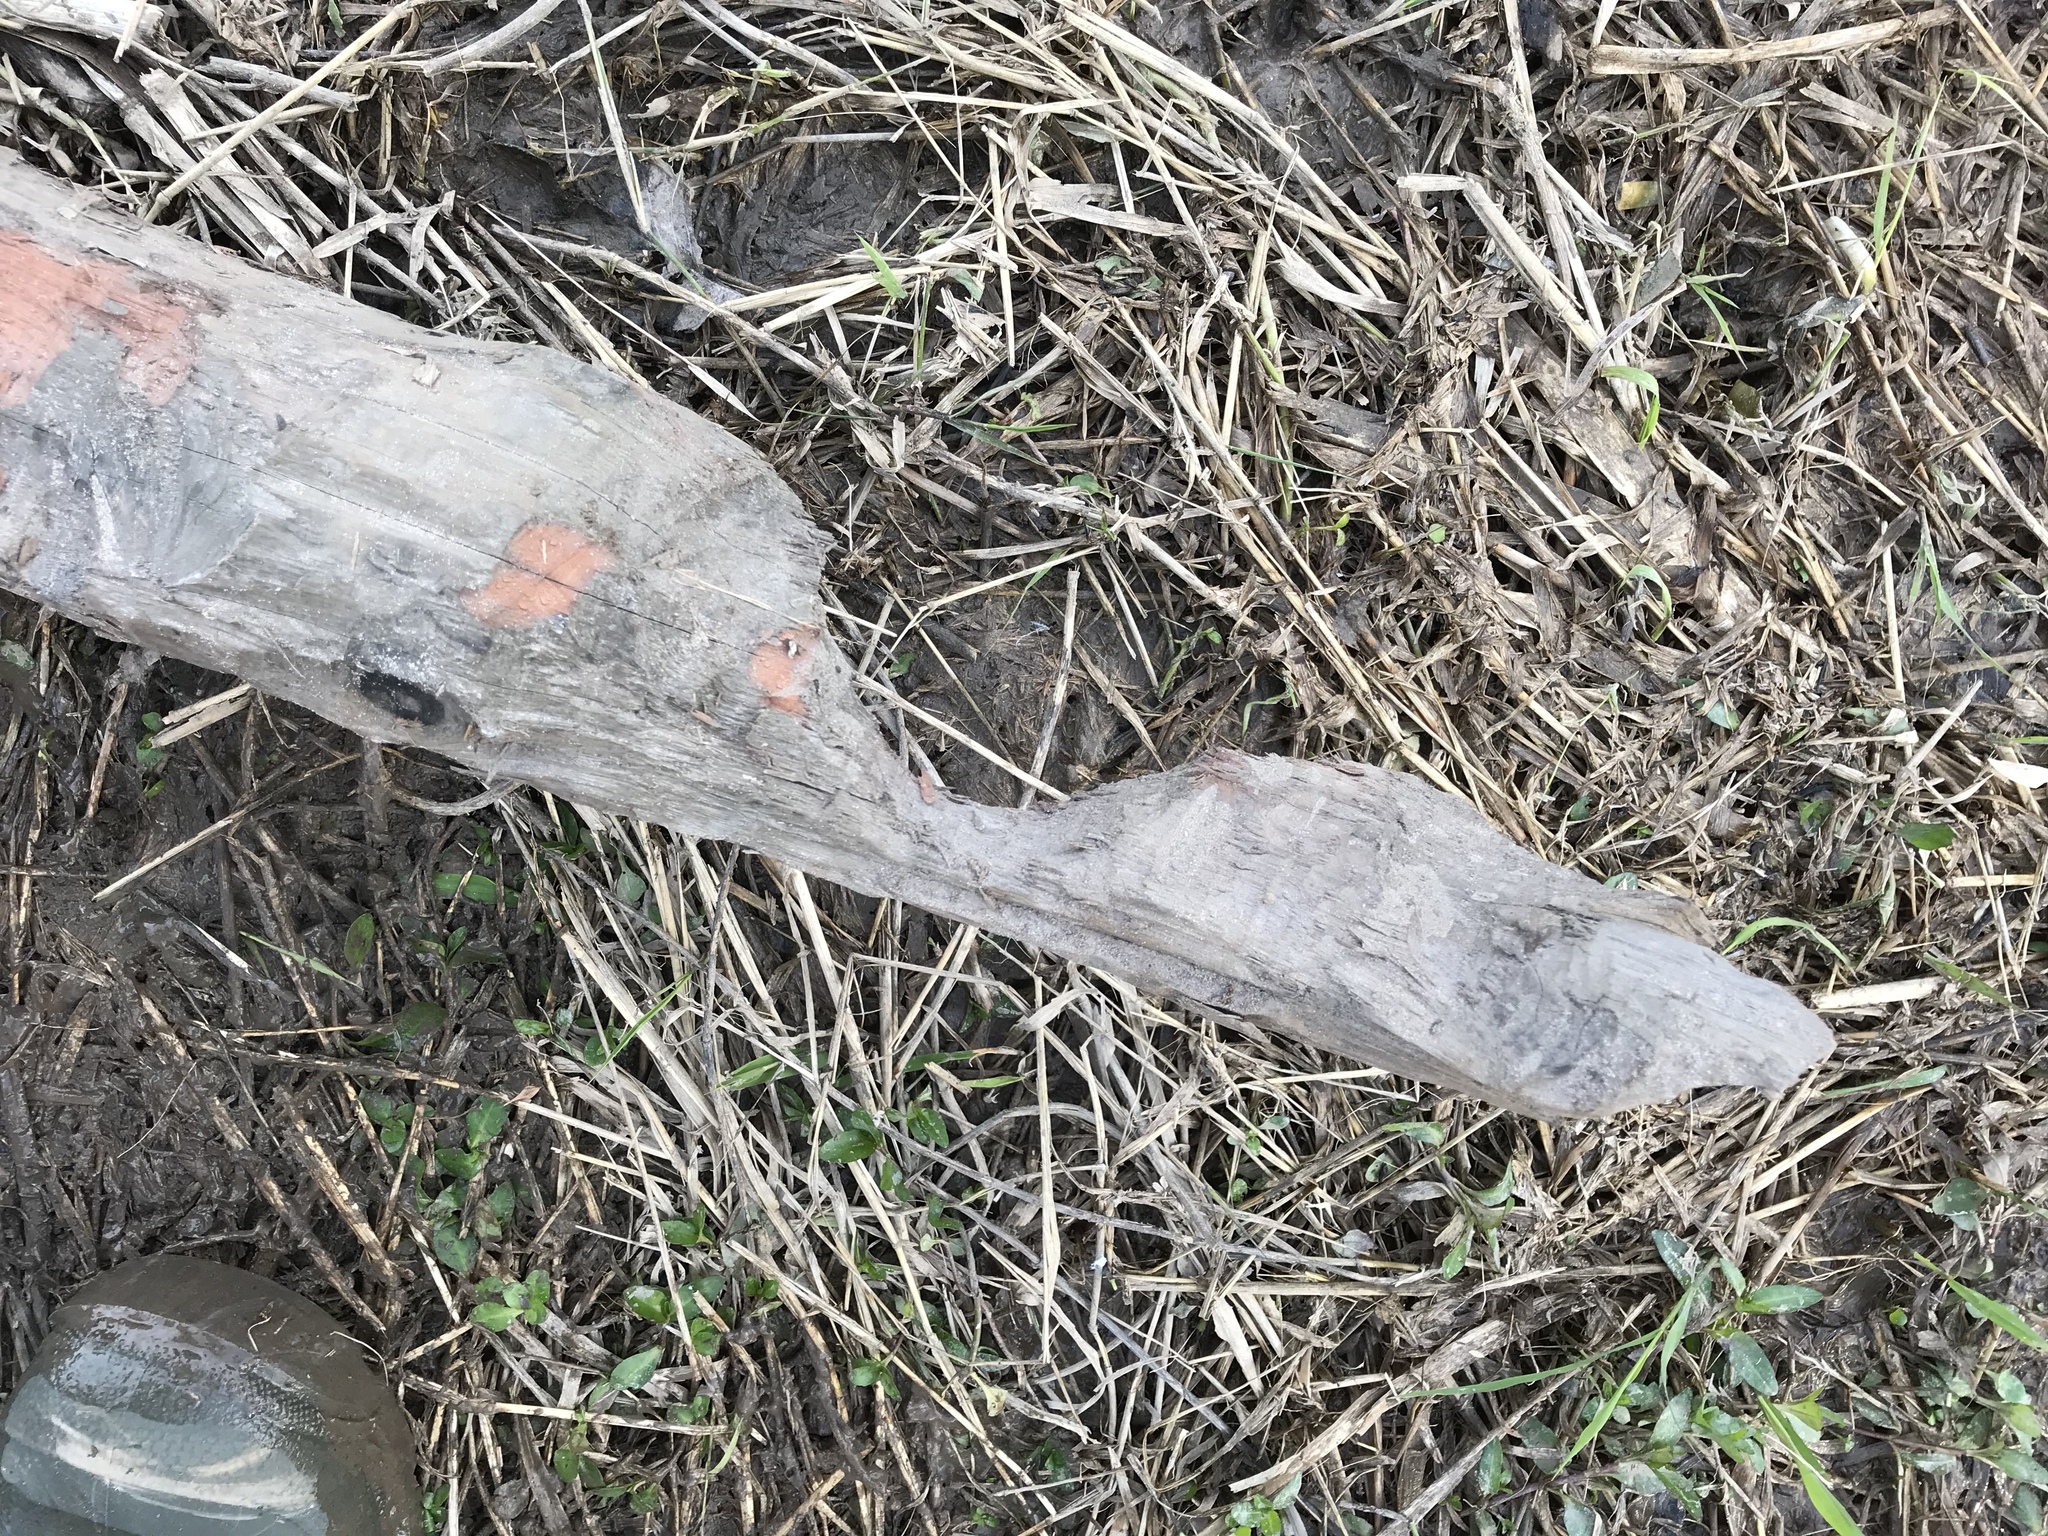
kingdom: Animalia
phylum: Chordata
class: Mammalia
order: Rodentia
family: Castoridae
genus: Castor
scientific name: Castor canadensis
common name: American beaver
